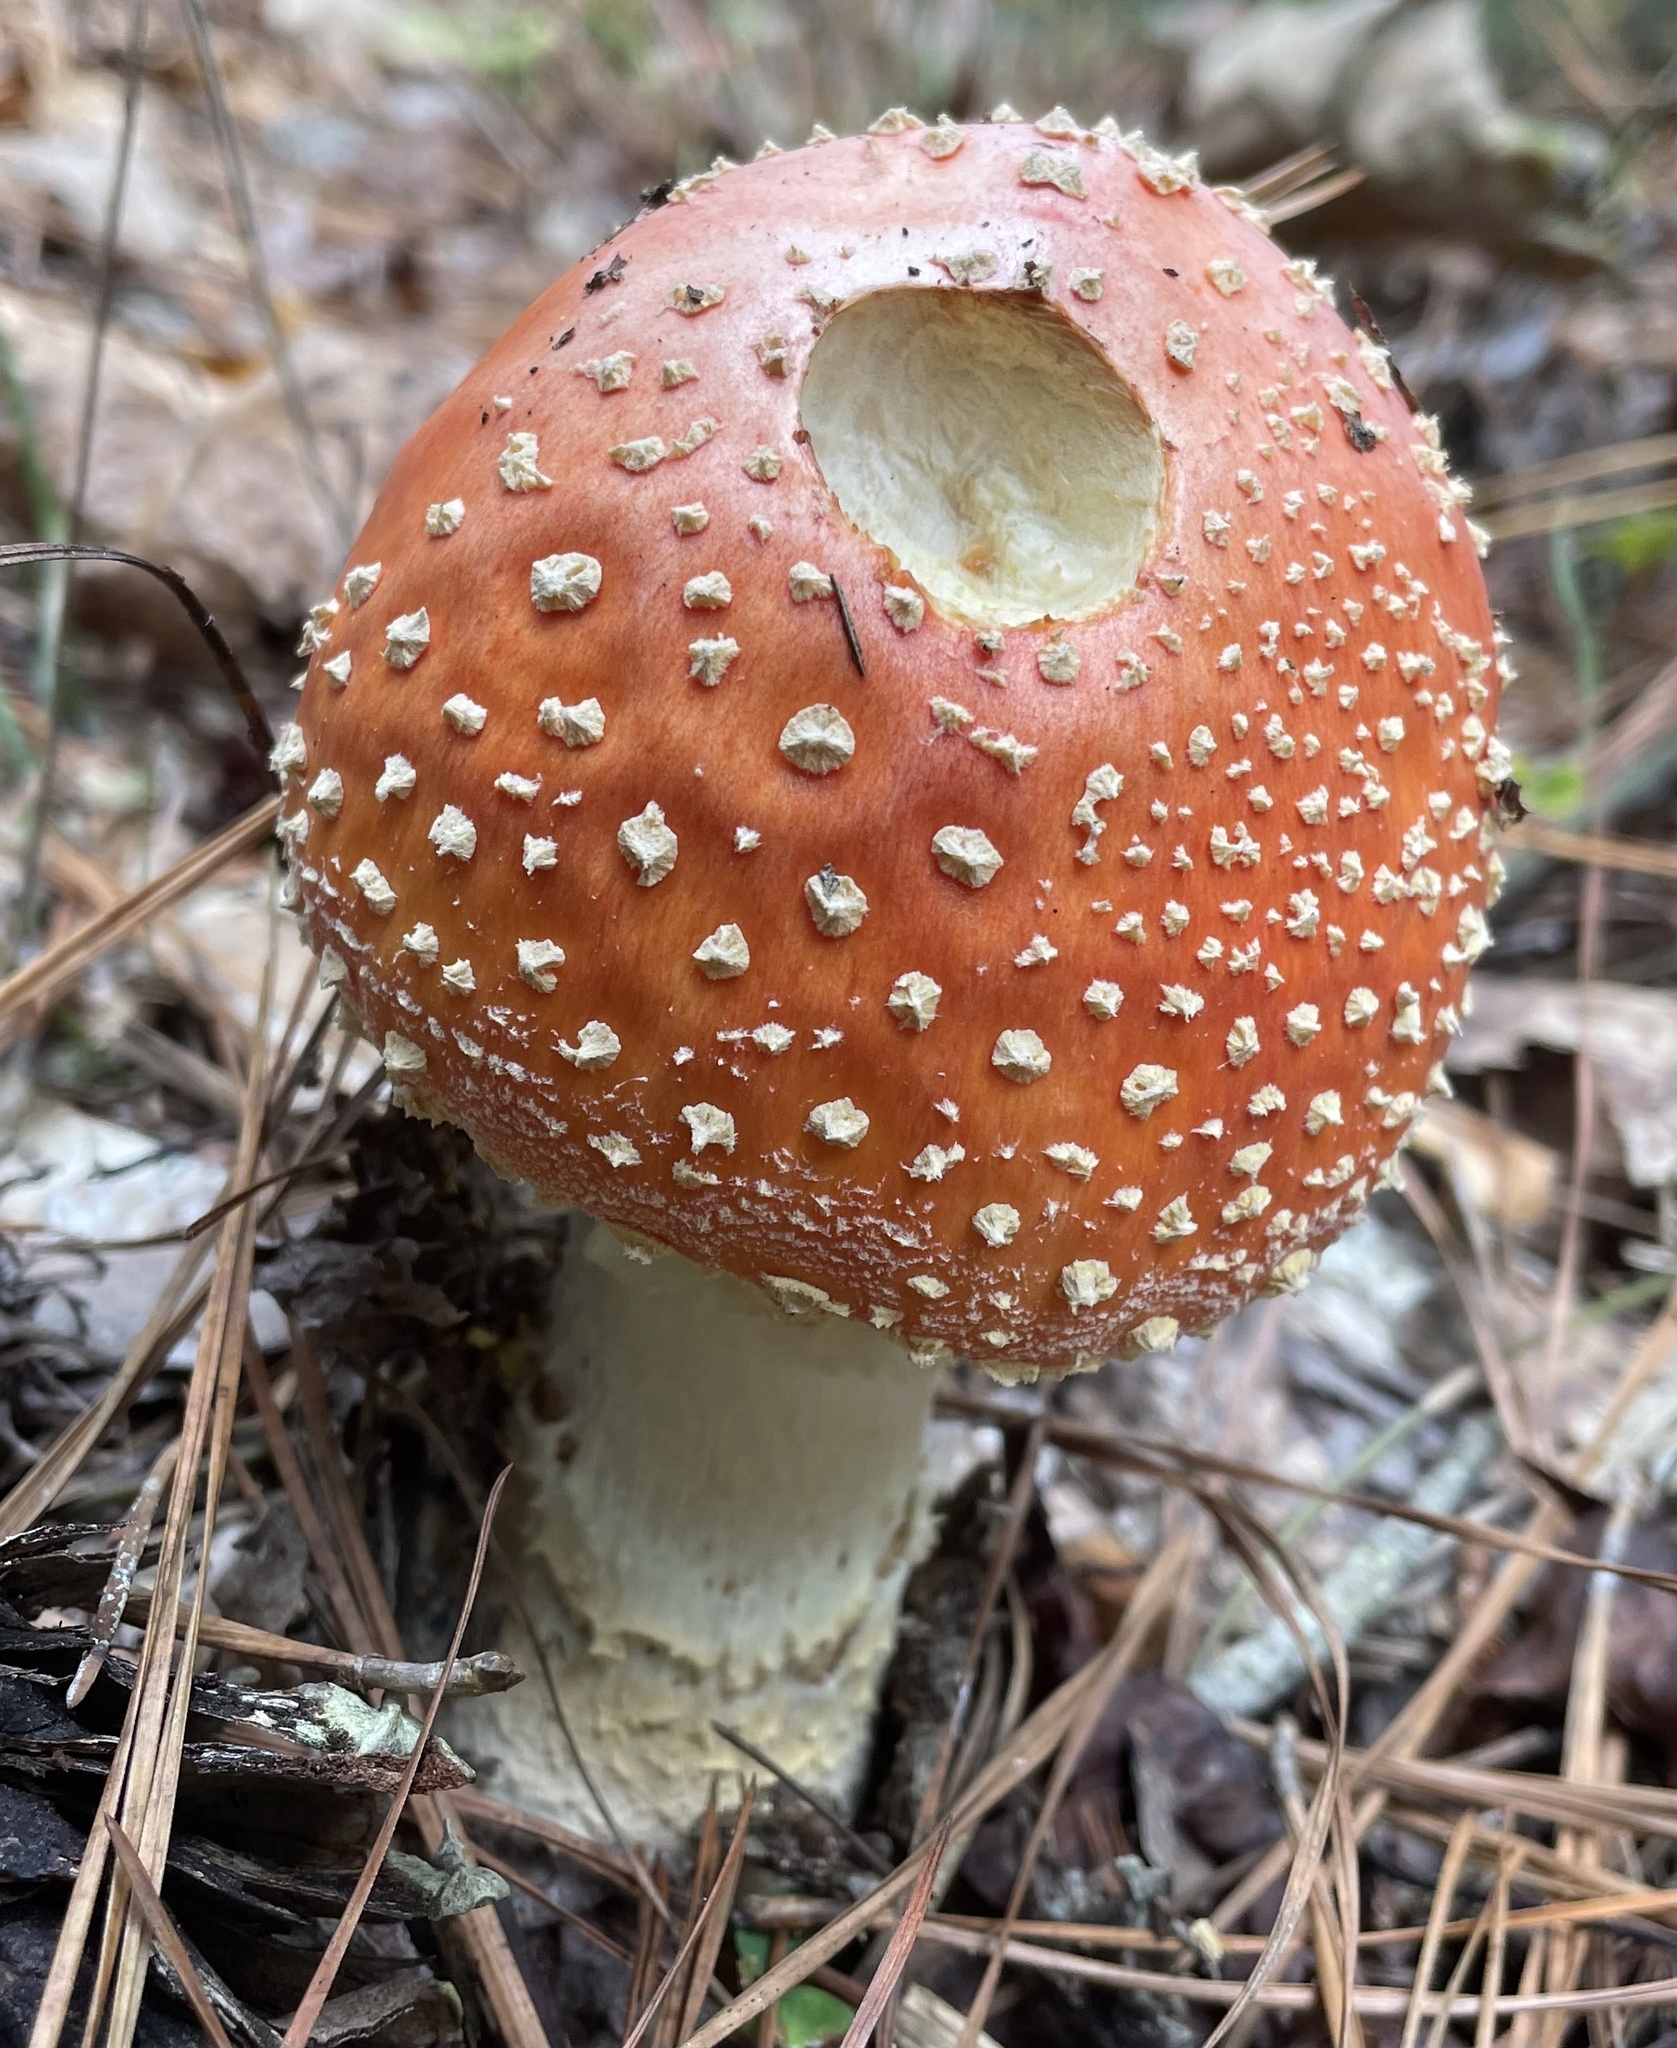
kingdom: Fungi
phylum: Basidiomycota
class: Agaricomycetes
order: Agaricales
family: Amanitaceae
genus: Amanita
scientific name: Amanita persicina
